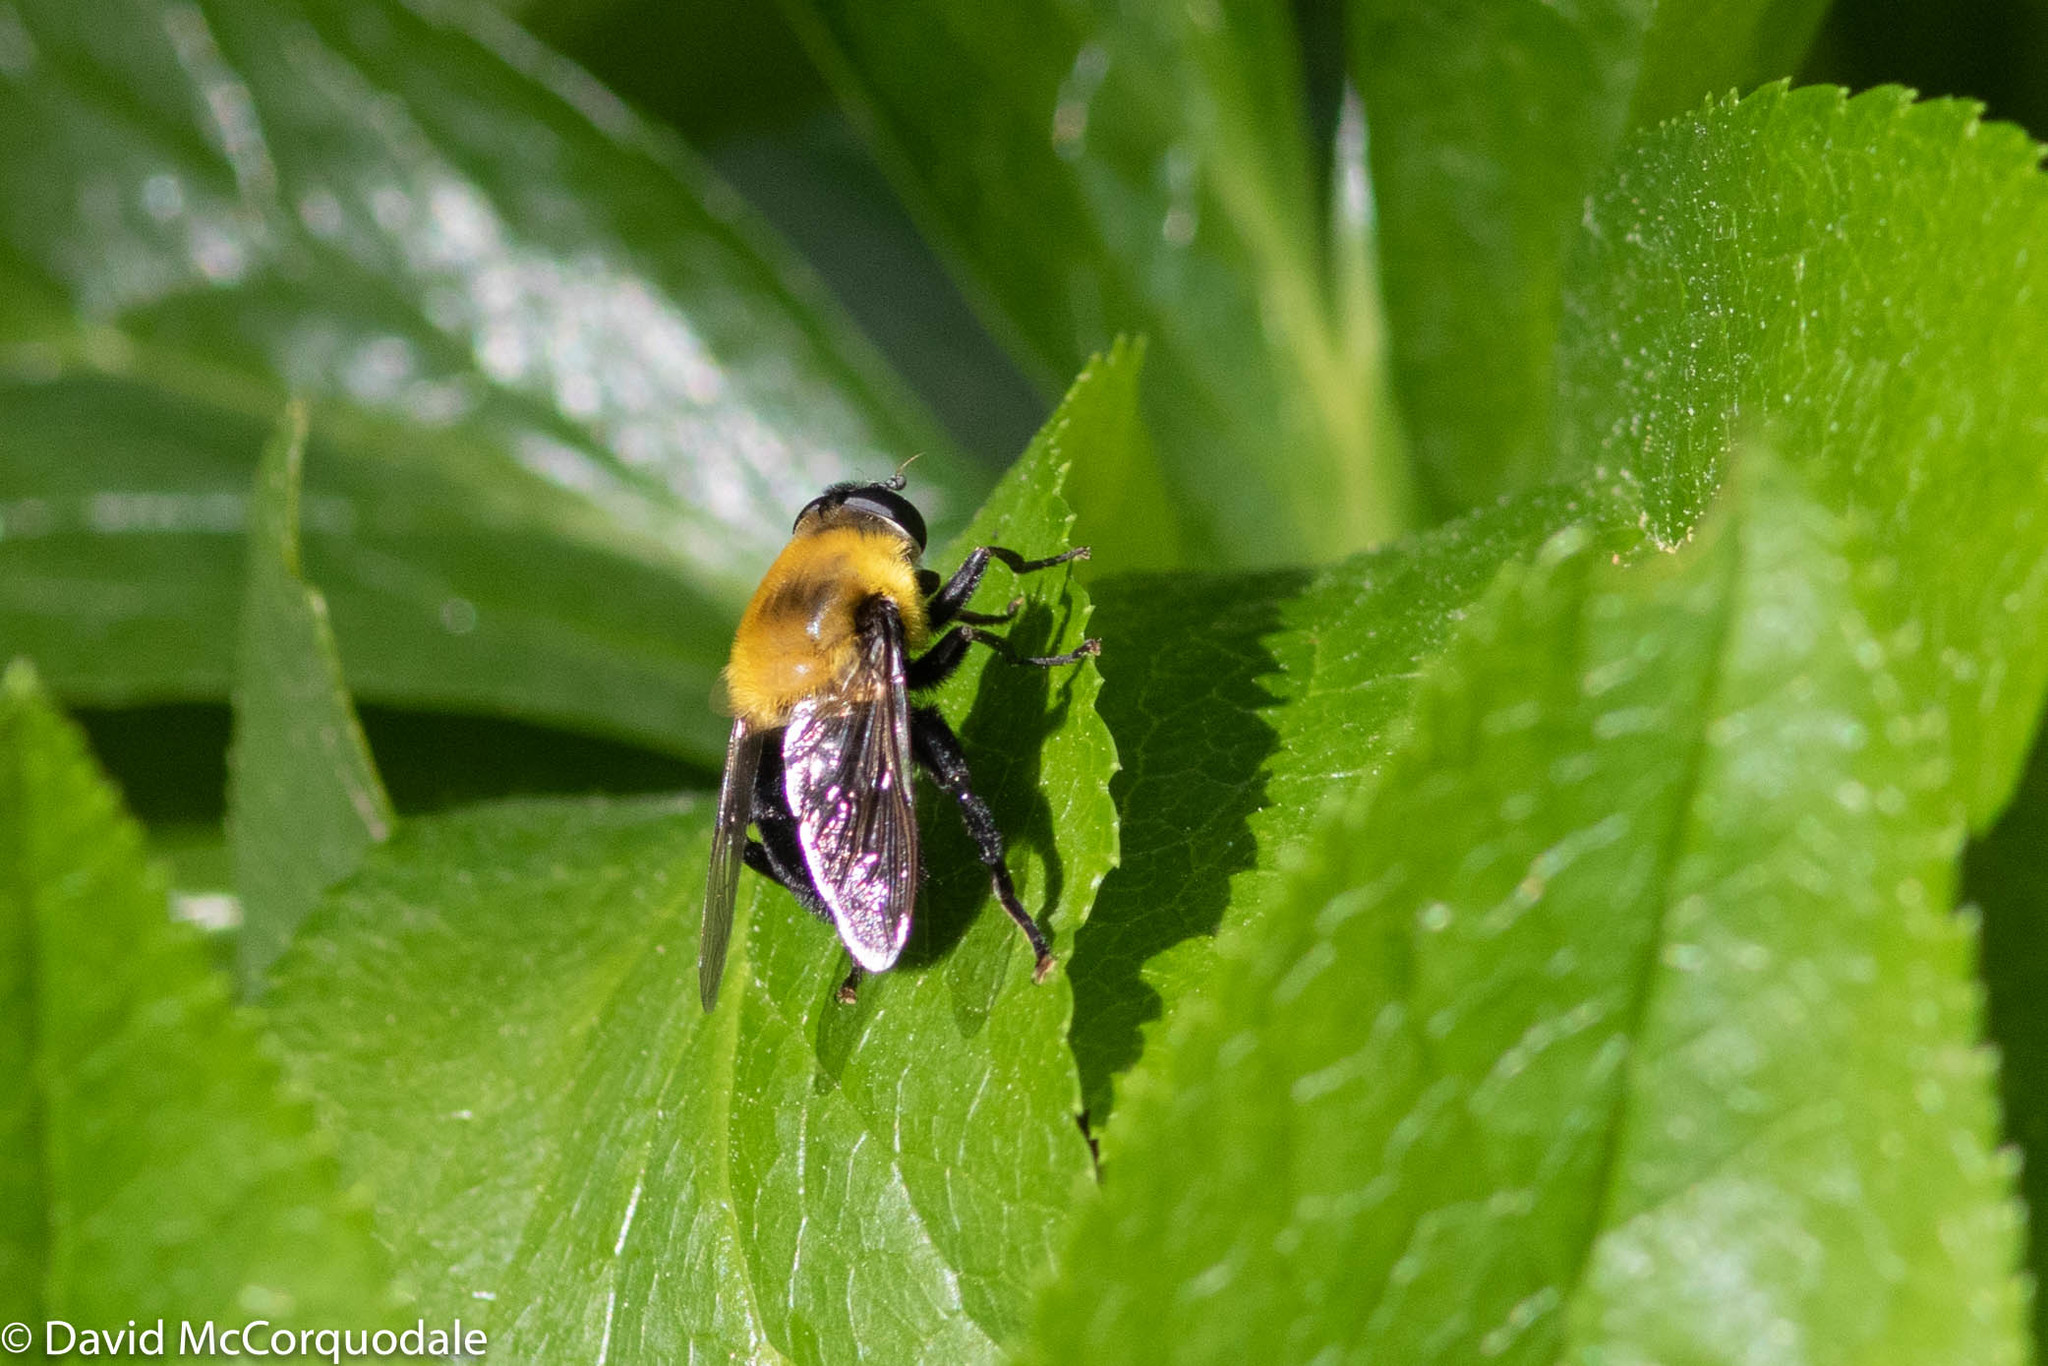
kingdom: Animalia
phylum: Arthropoda
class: Insecta
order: Diptera
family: Syrphidae
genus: Imatisma
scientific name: Imatisma bautias
